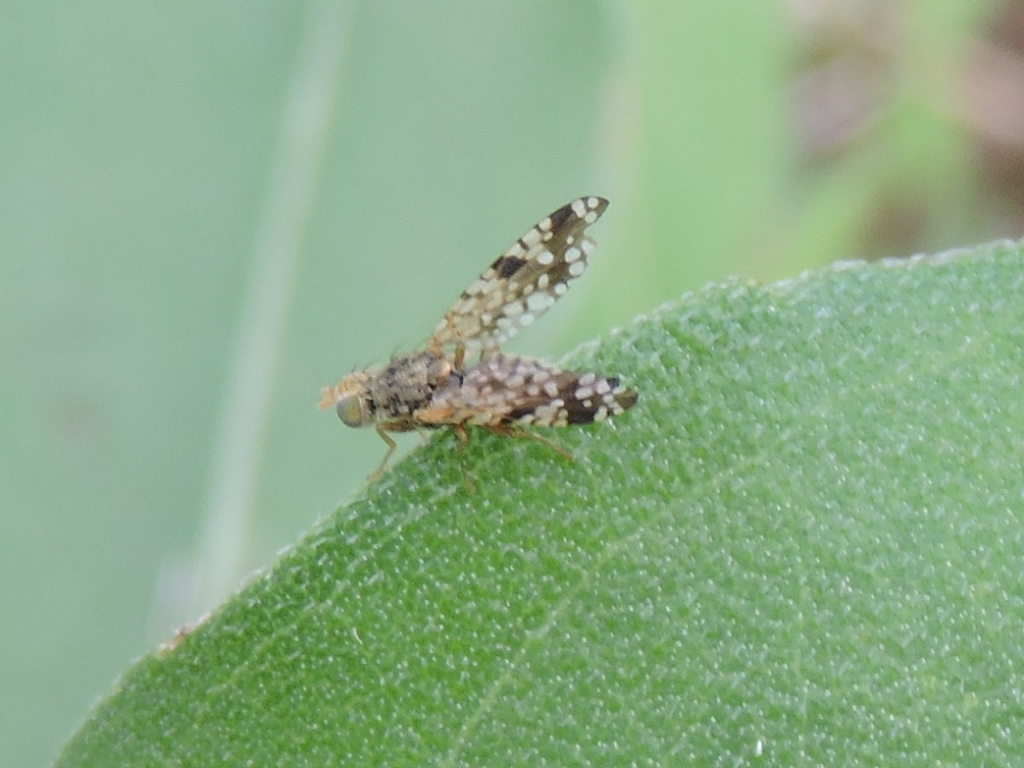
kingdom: Animalia
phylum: Arthropoda
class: Insecta
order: Diptera
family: Tephritidae
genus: Neotephritis
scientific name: Neotephritis finalis
